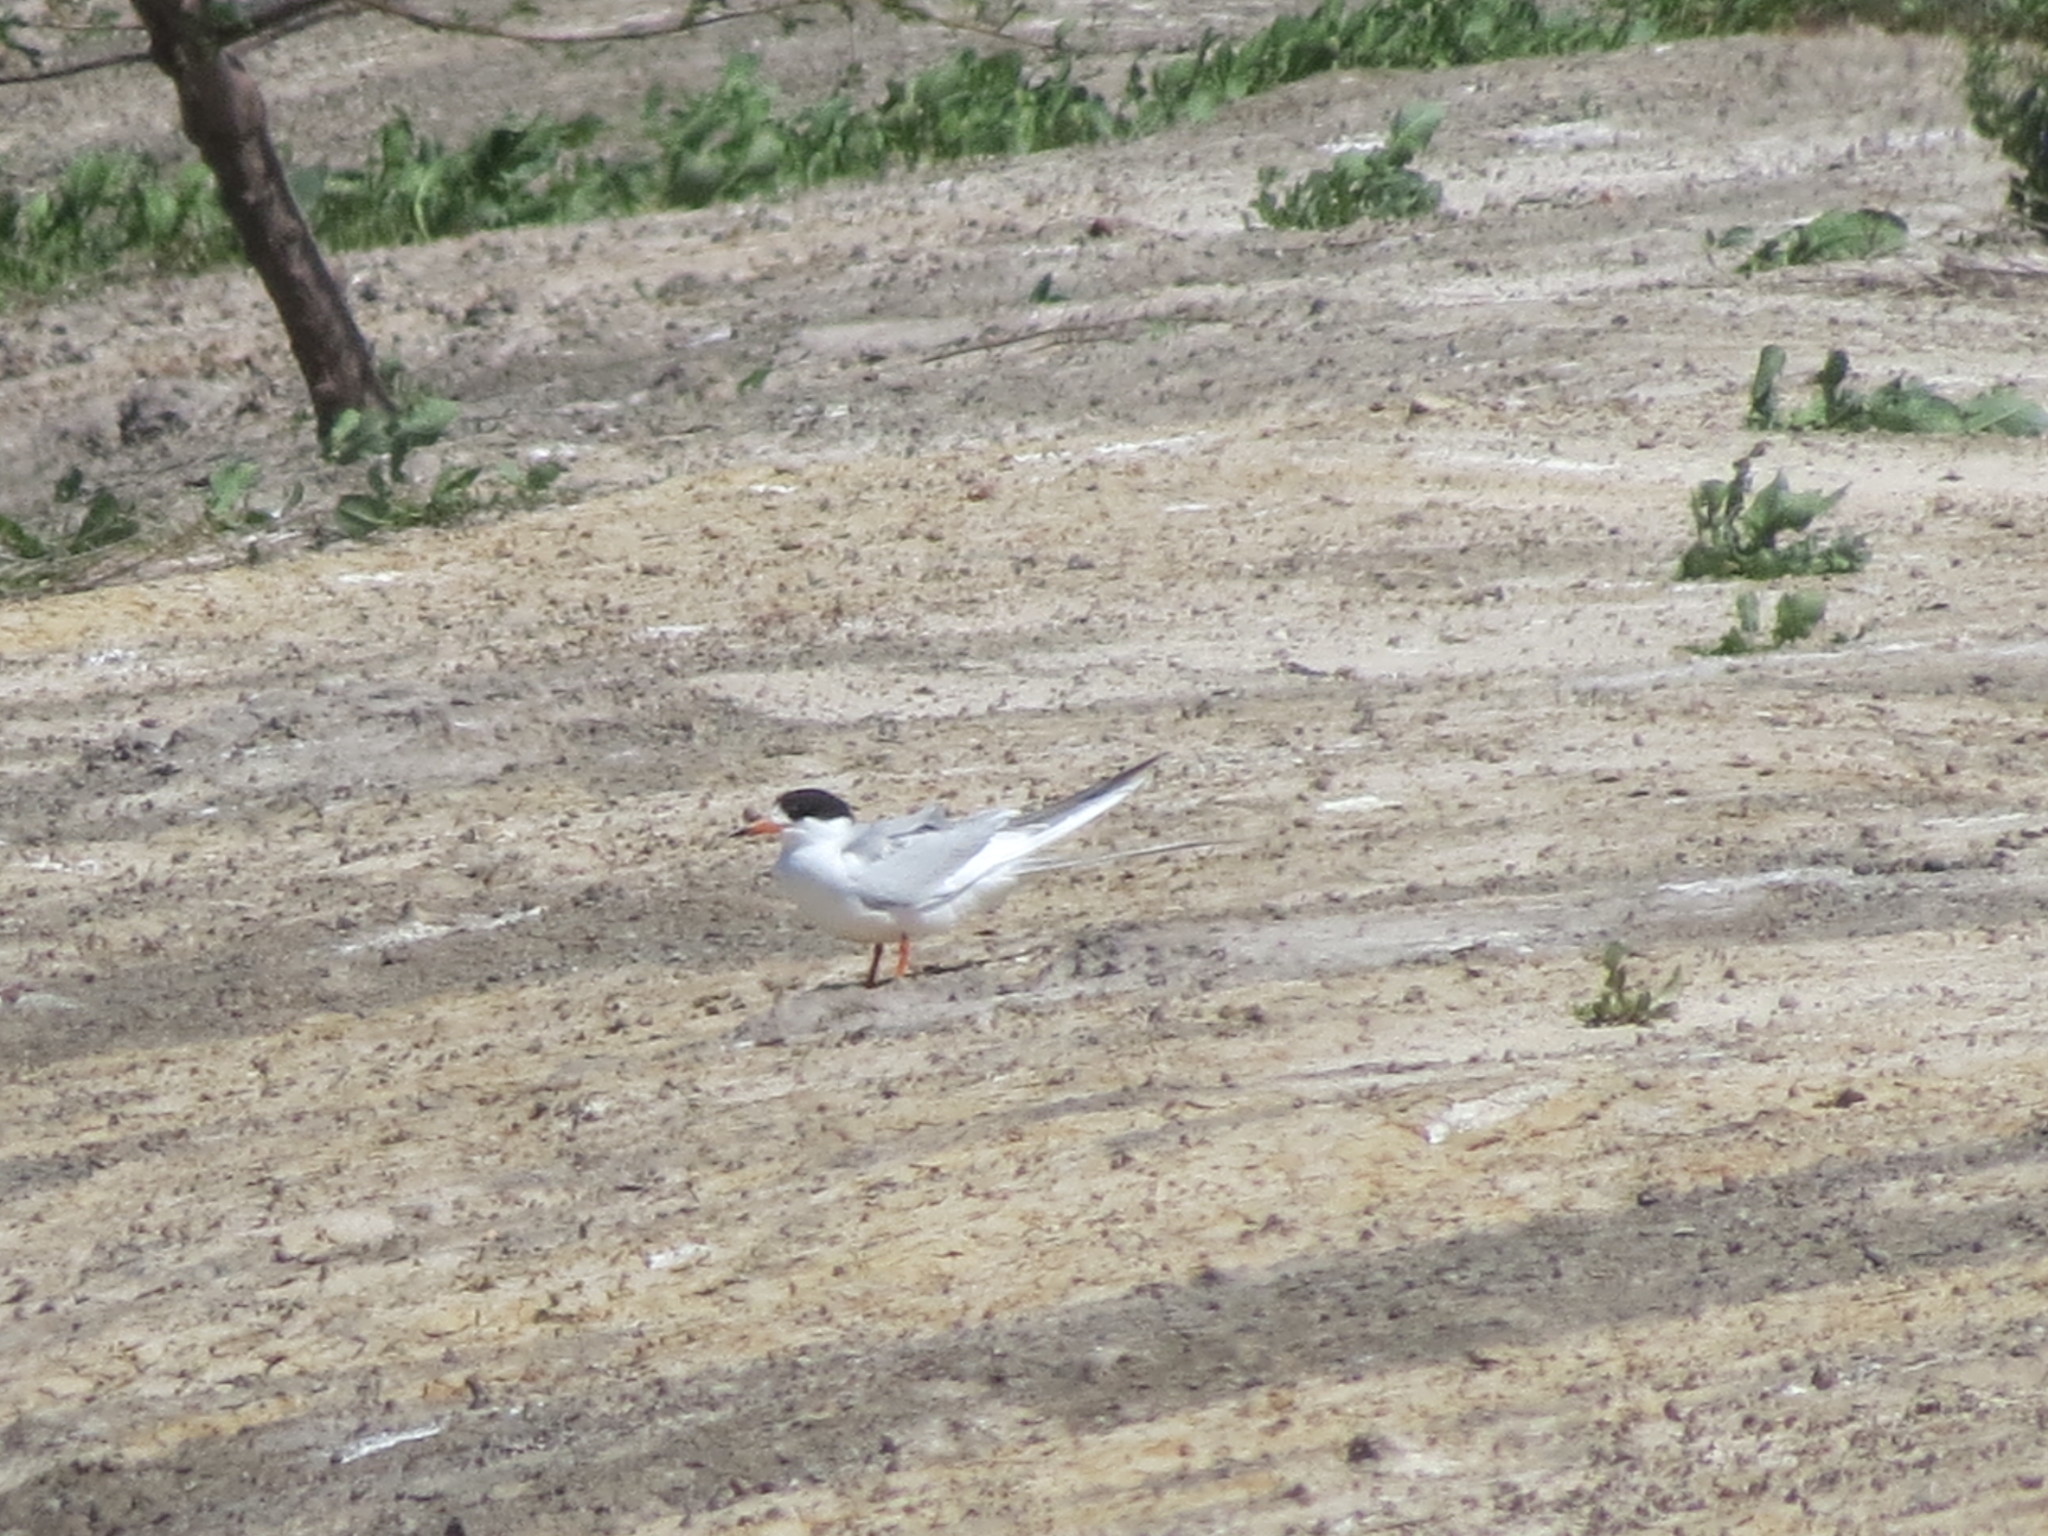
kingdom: Animalia
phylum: Chordata
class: Aves
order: Charadriiformes
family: Laridae
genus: Sterna
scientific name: Sterna forsteri
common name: Forster's tern
